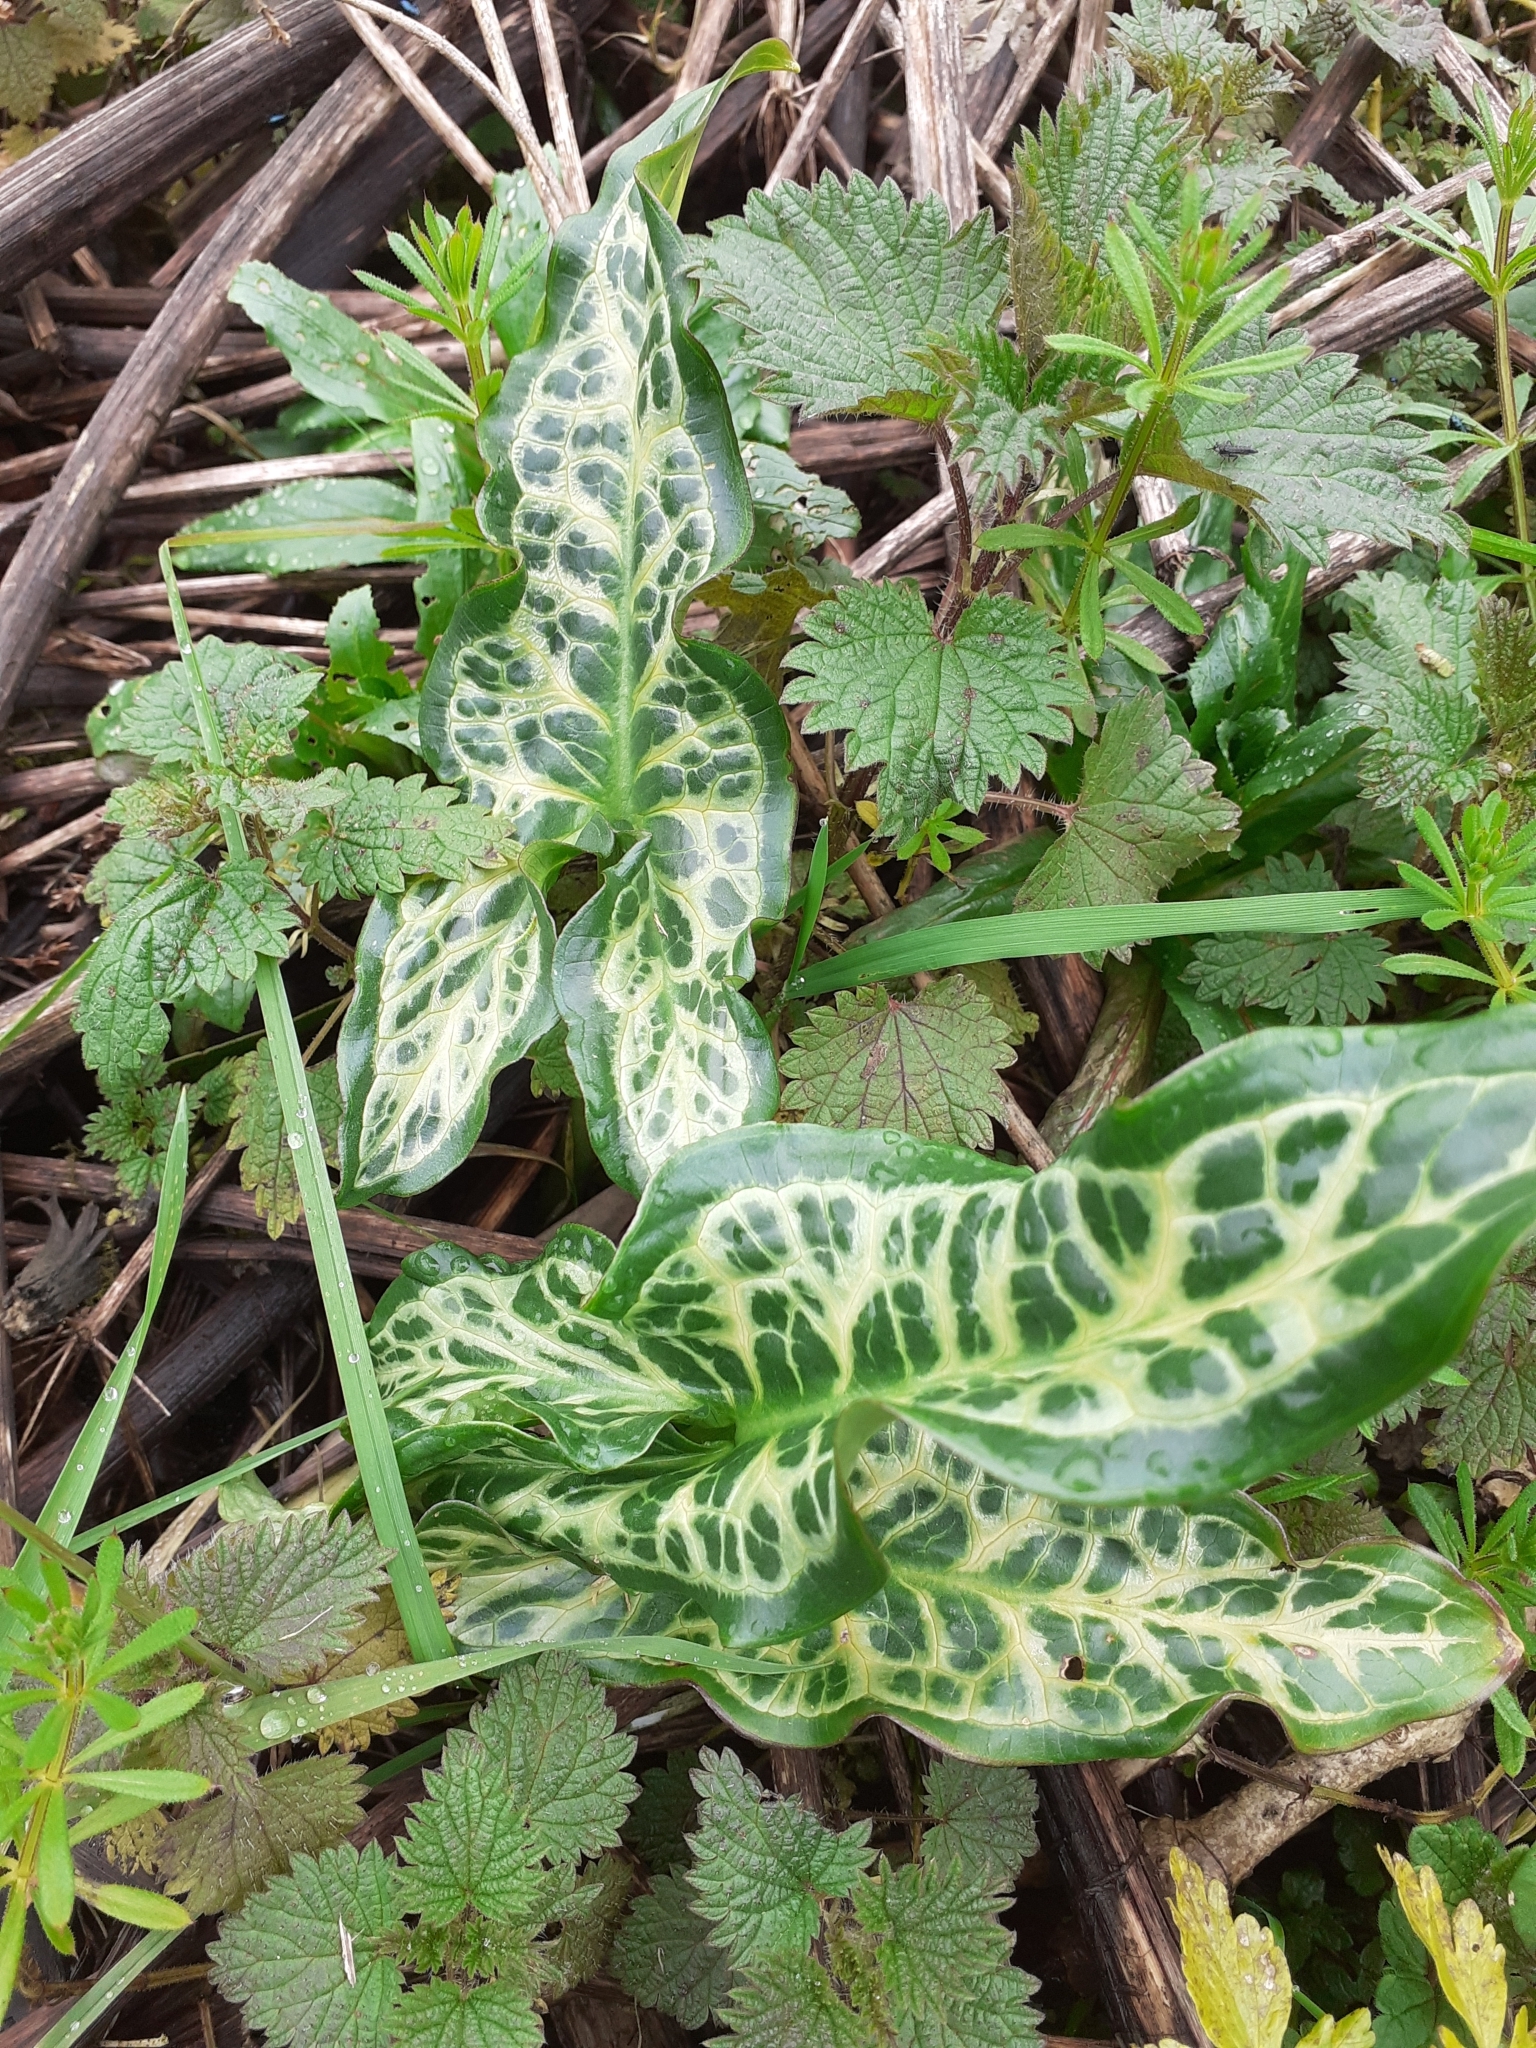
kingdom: Plantae
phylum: Tracheophyta
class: Liliopsida
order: Alismatales
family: Araceae
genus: Arum
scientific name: Arum italicum
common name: Italian lords-and-ladies
